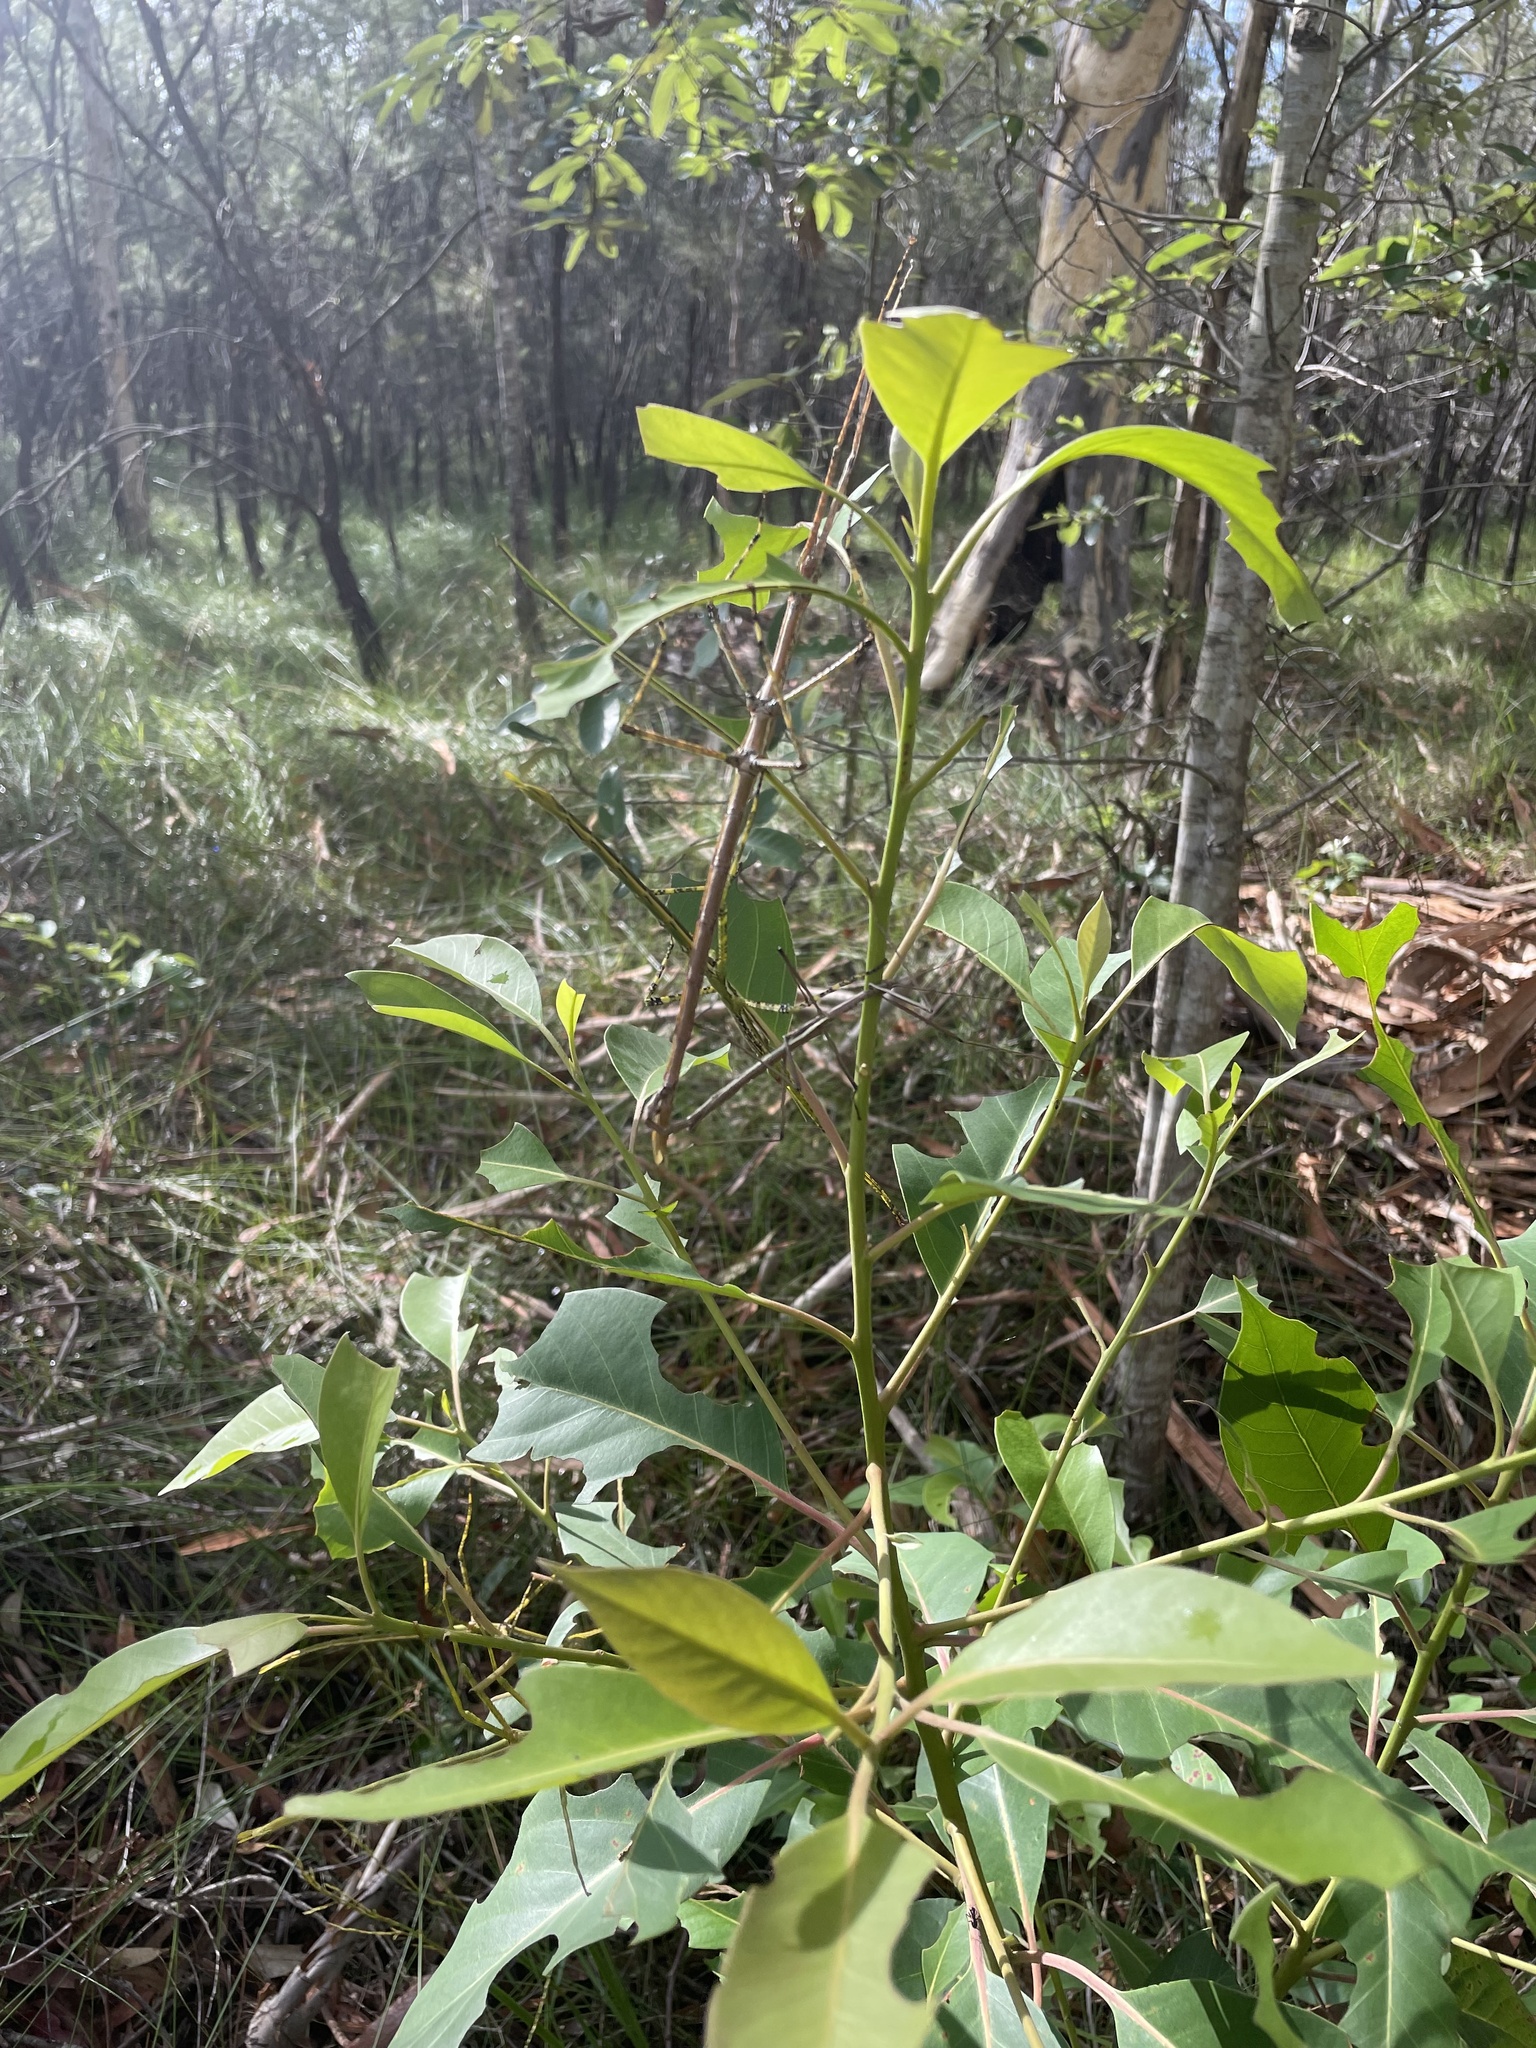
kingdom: Animalia
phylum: Arthropoda
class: Insecta
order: Phasmida
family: Phasmatidae
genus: Anchiale
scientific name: Anchiale austrotessulata
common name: Tessellated stick-insect
